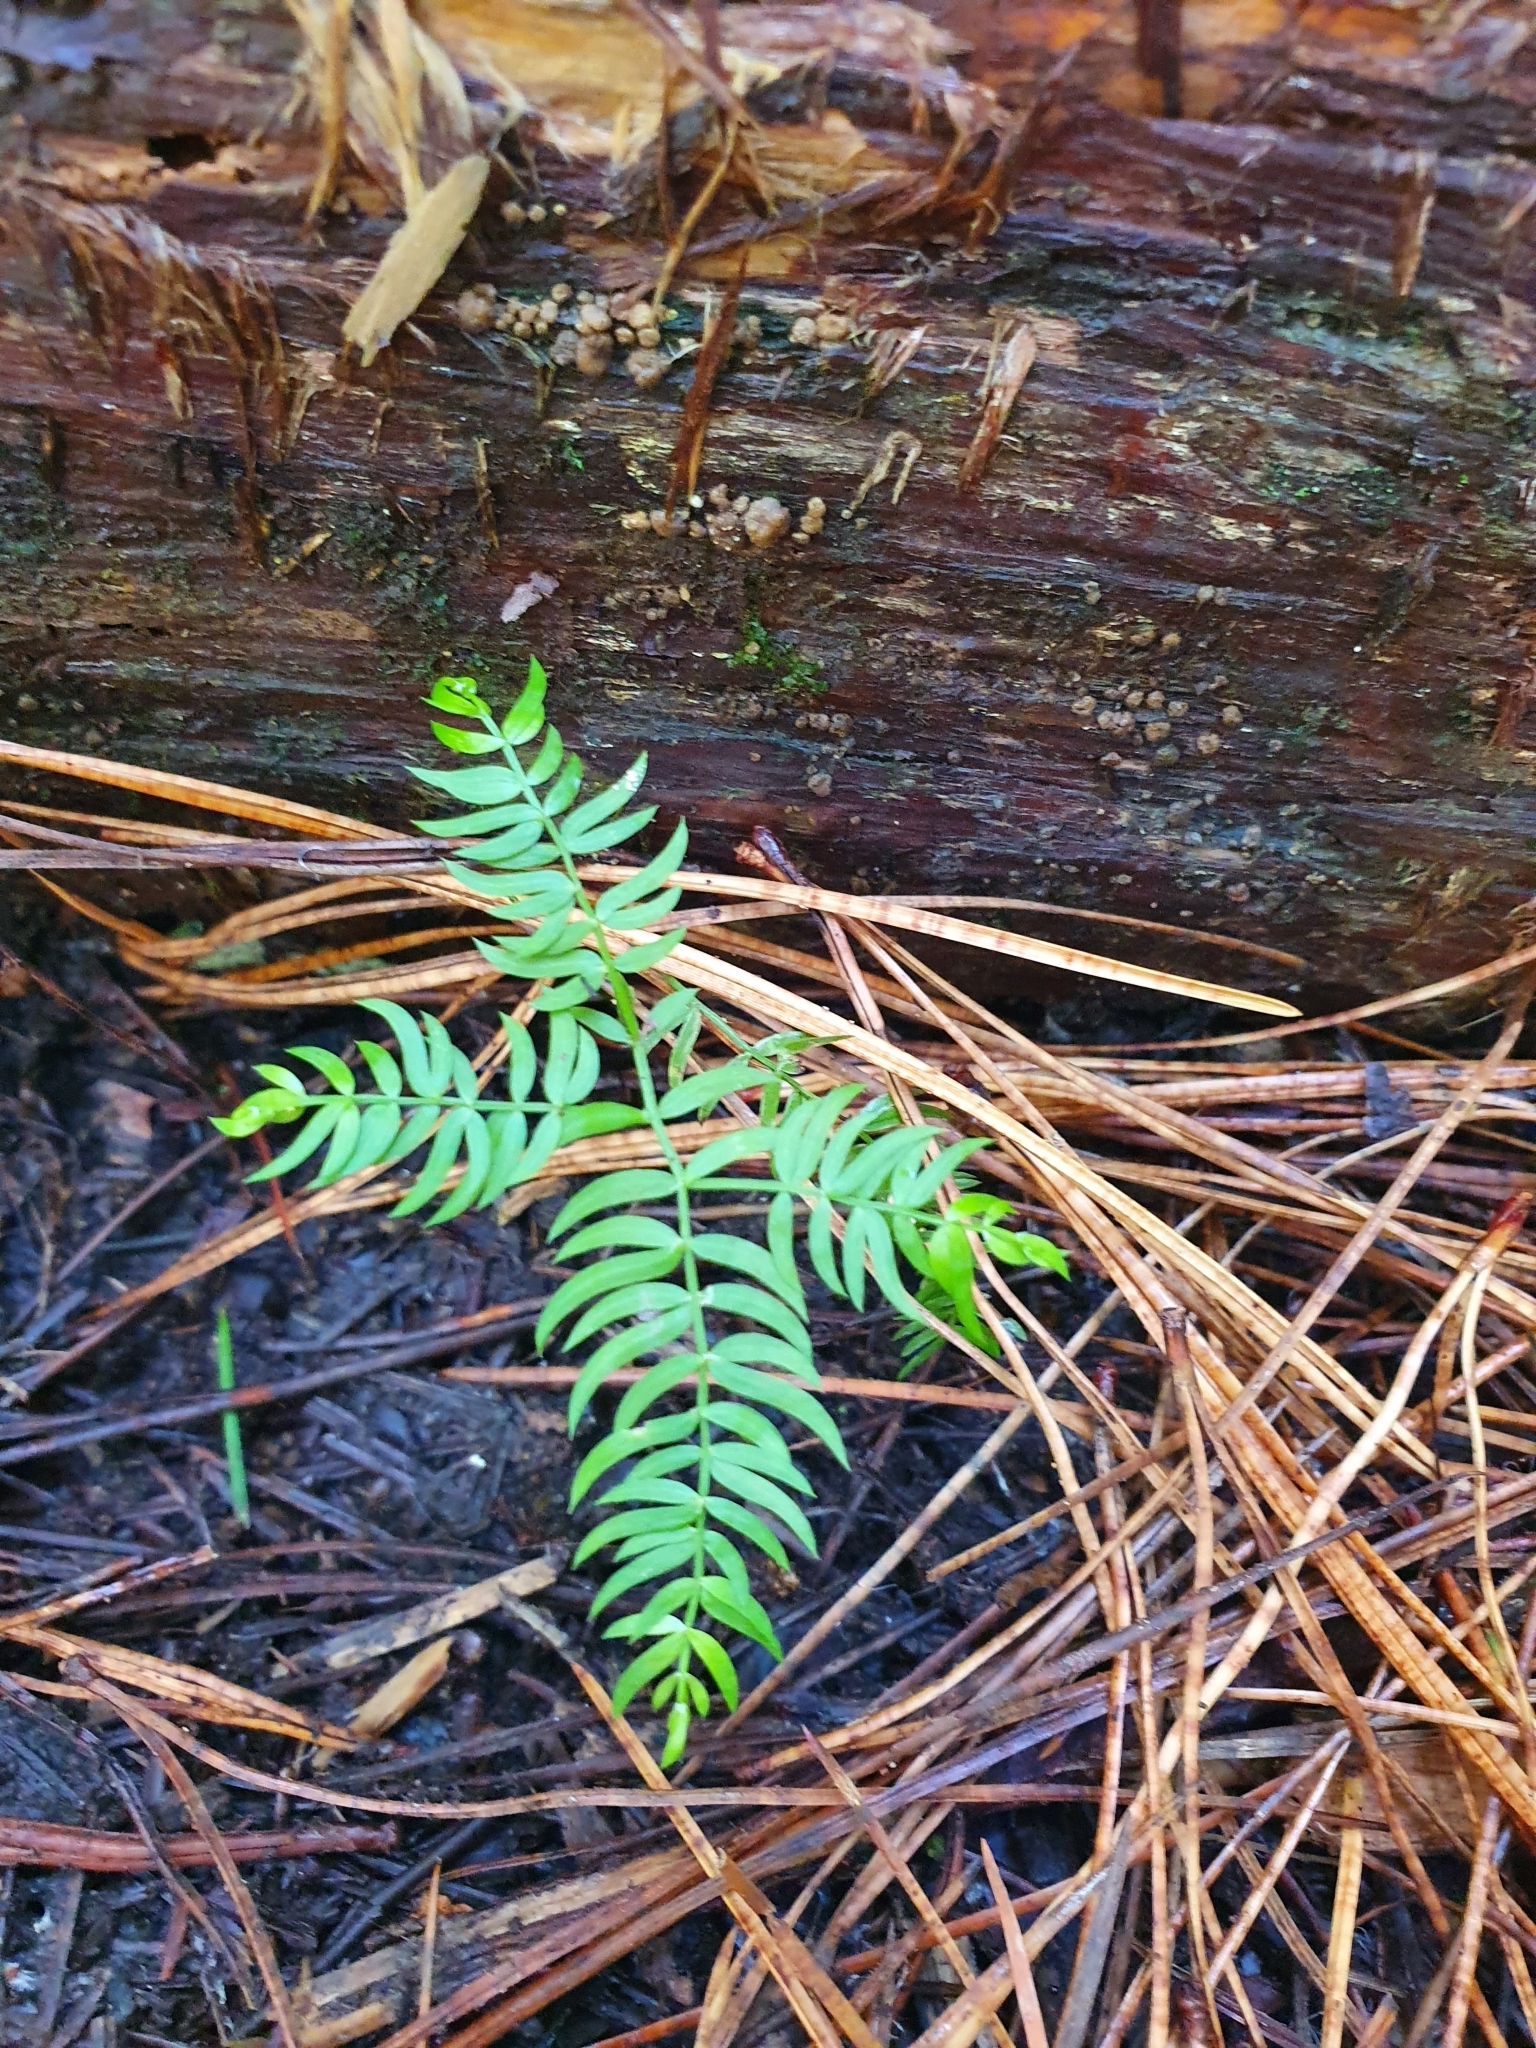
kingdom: Plantae
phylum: Tracheophyta
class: Liliopsida
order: Asparagales
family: Asparagaceae
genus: Asparagus
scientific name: Asparagus scandens
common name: Asparagus-fern
